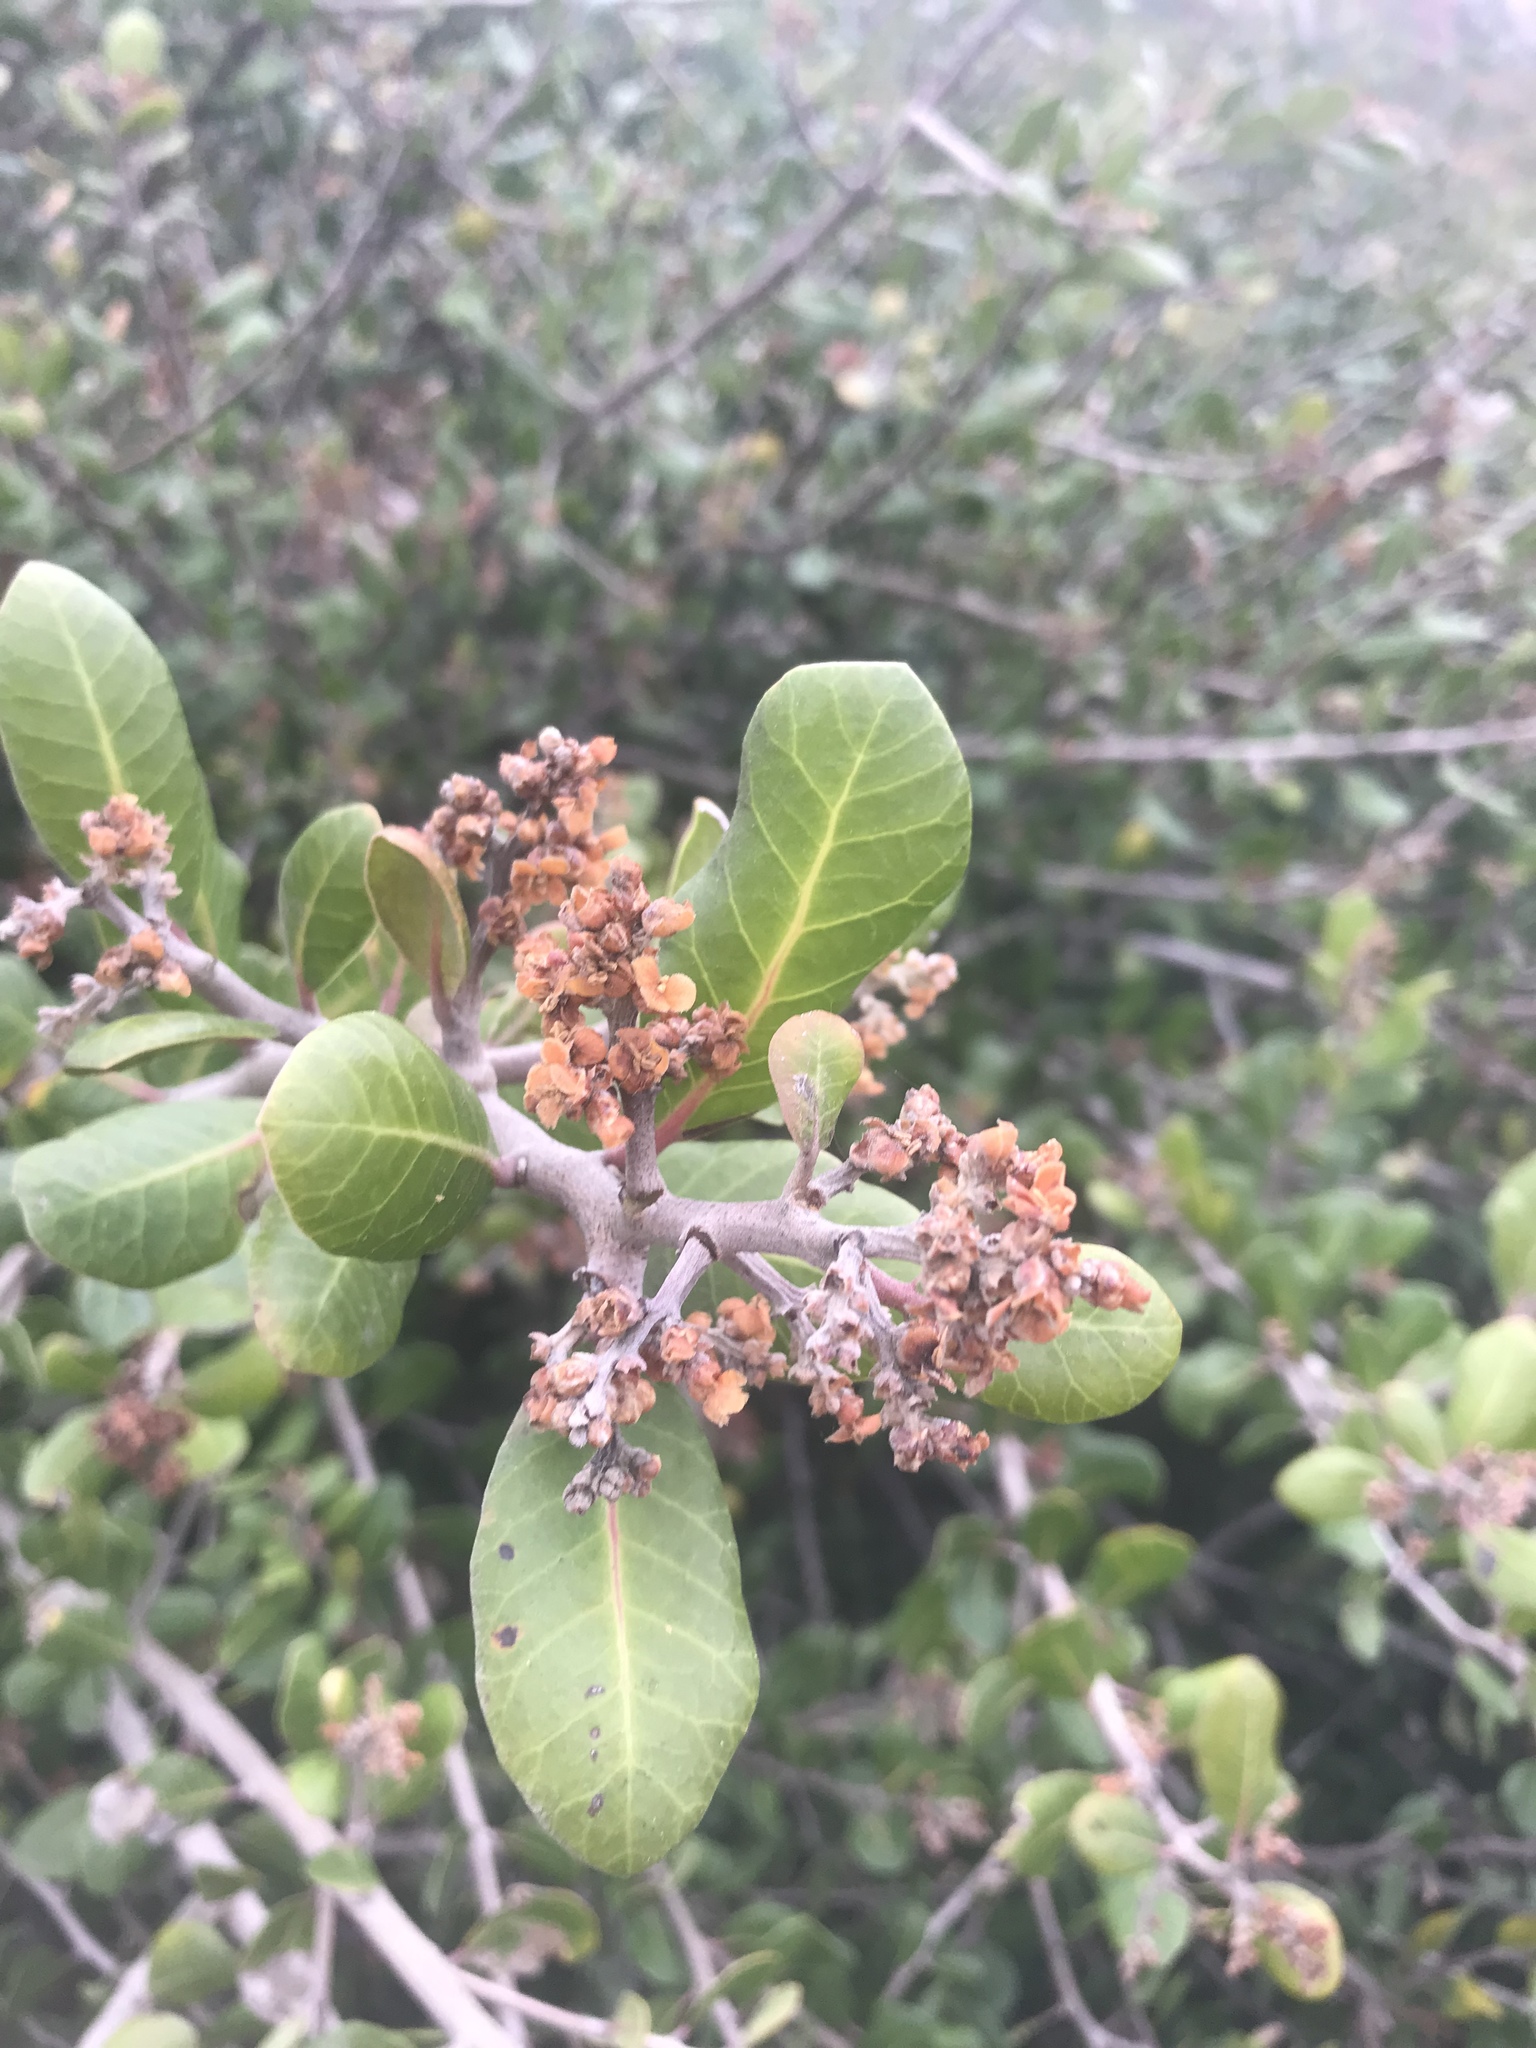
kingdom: Plantae
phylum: Tracheophyta
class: Magnoliopsida
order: Sapindales
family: Anacardiaceae
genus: Rhus
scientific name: Rhus integrifolia
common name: Lemonade sumac
